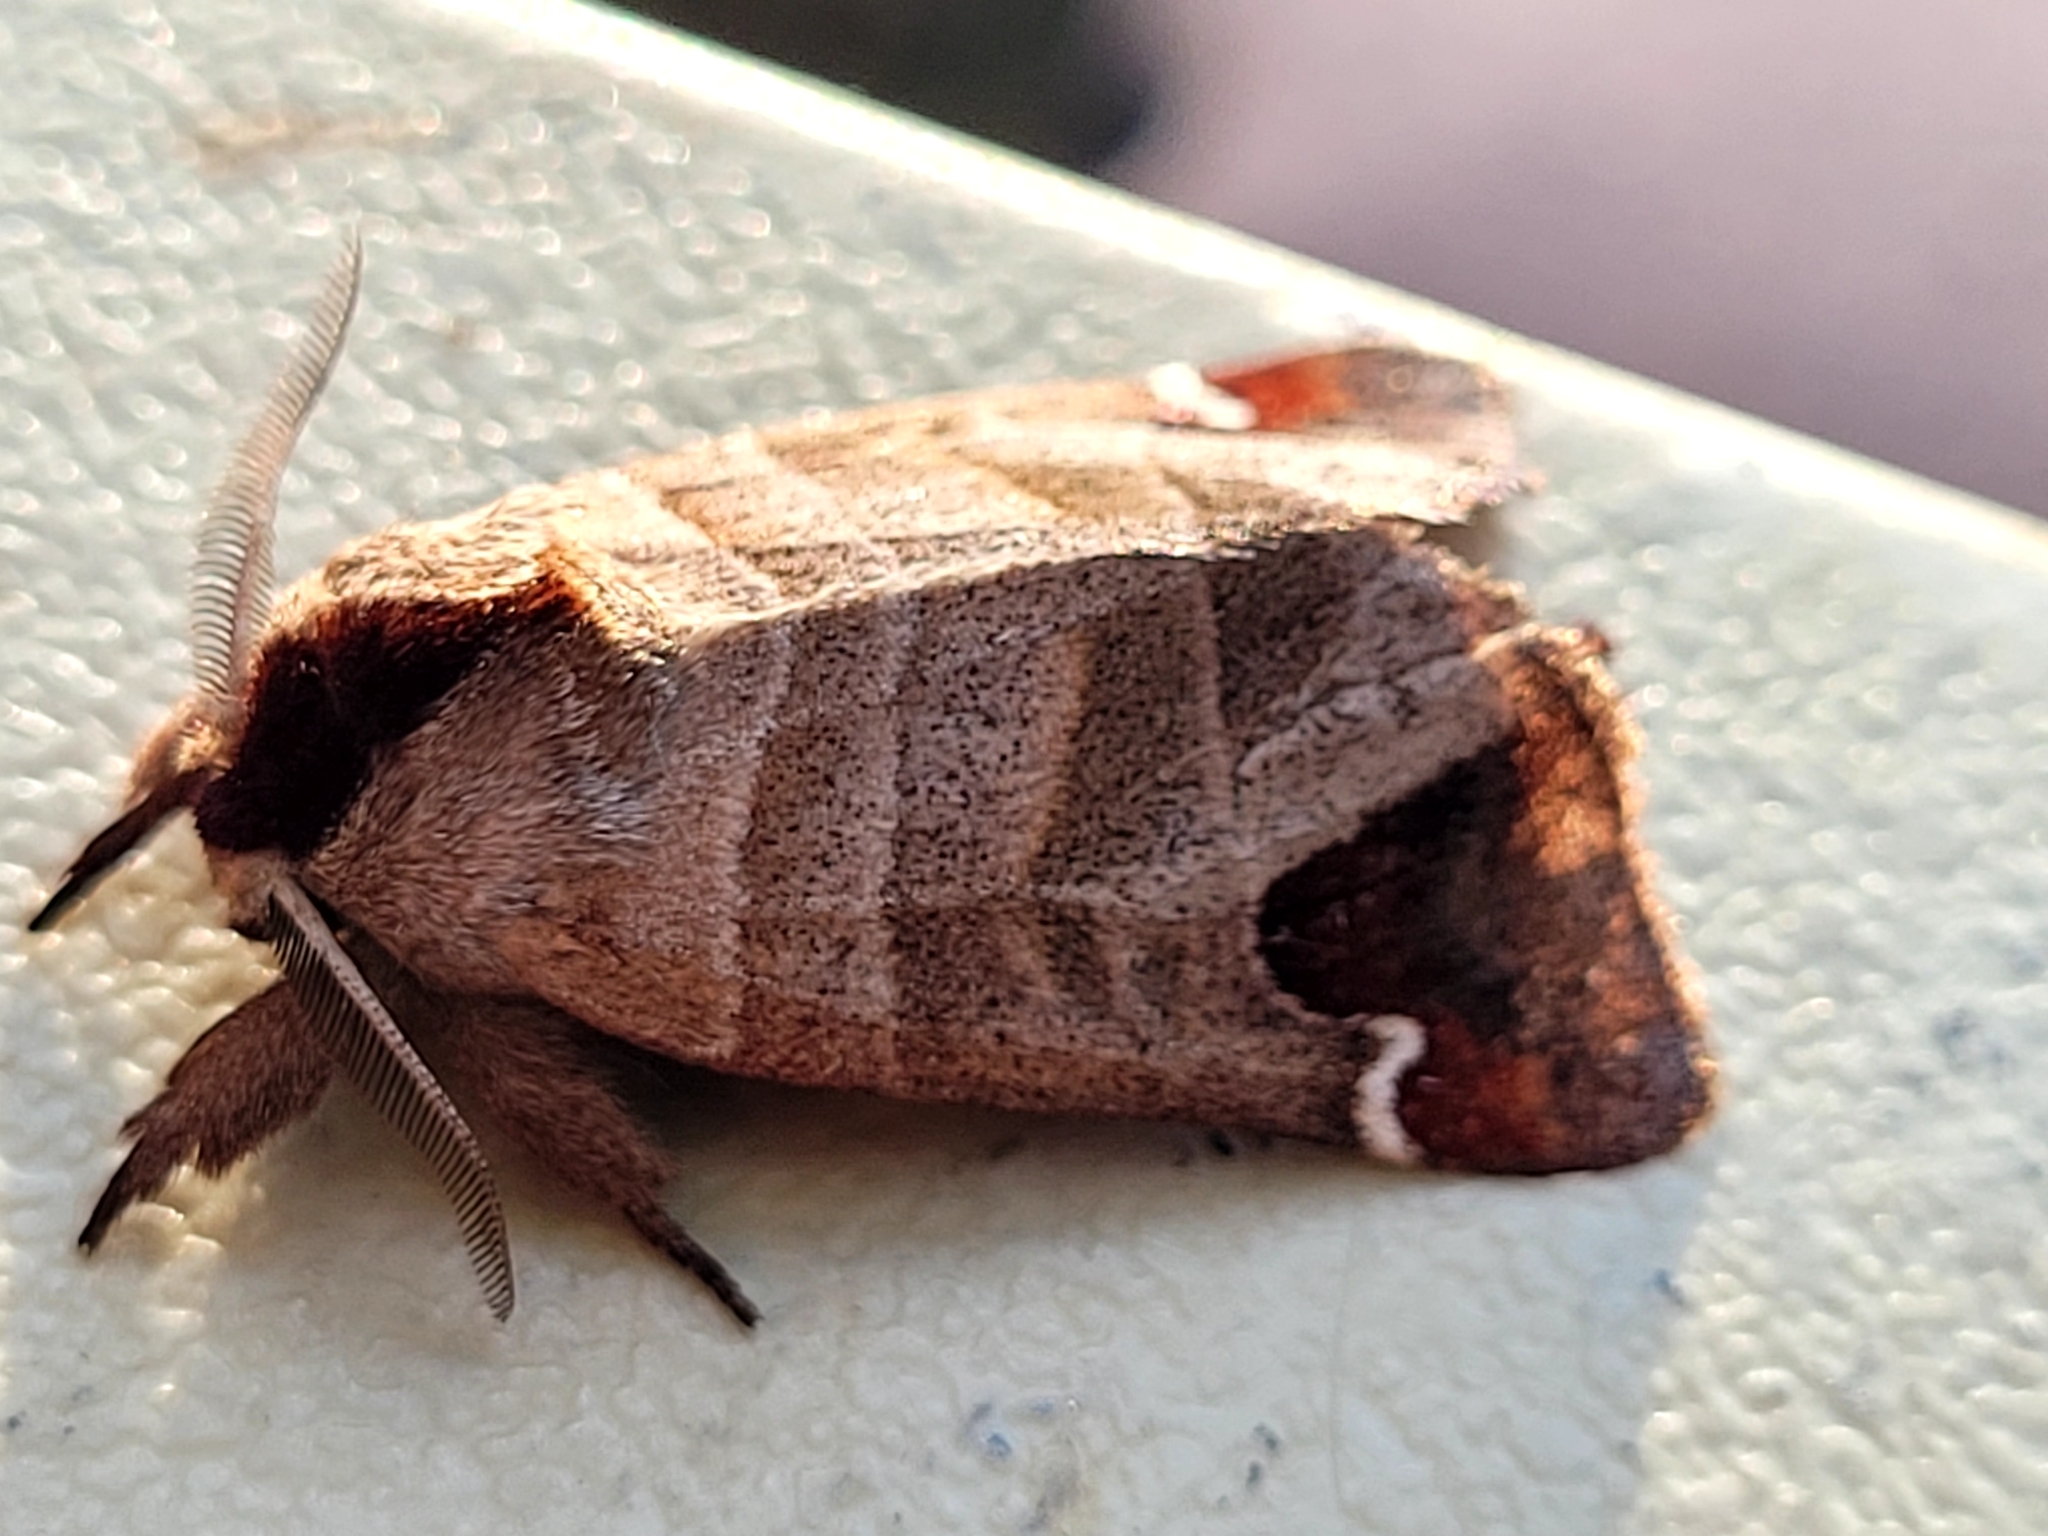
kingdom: Animalia
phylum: Arthropoda
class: Insecta
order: Lepidoptera
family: Notodontidae
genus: Clostera
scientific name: Clostera albosigma
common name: Sigmoid prominent
